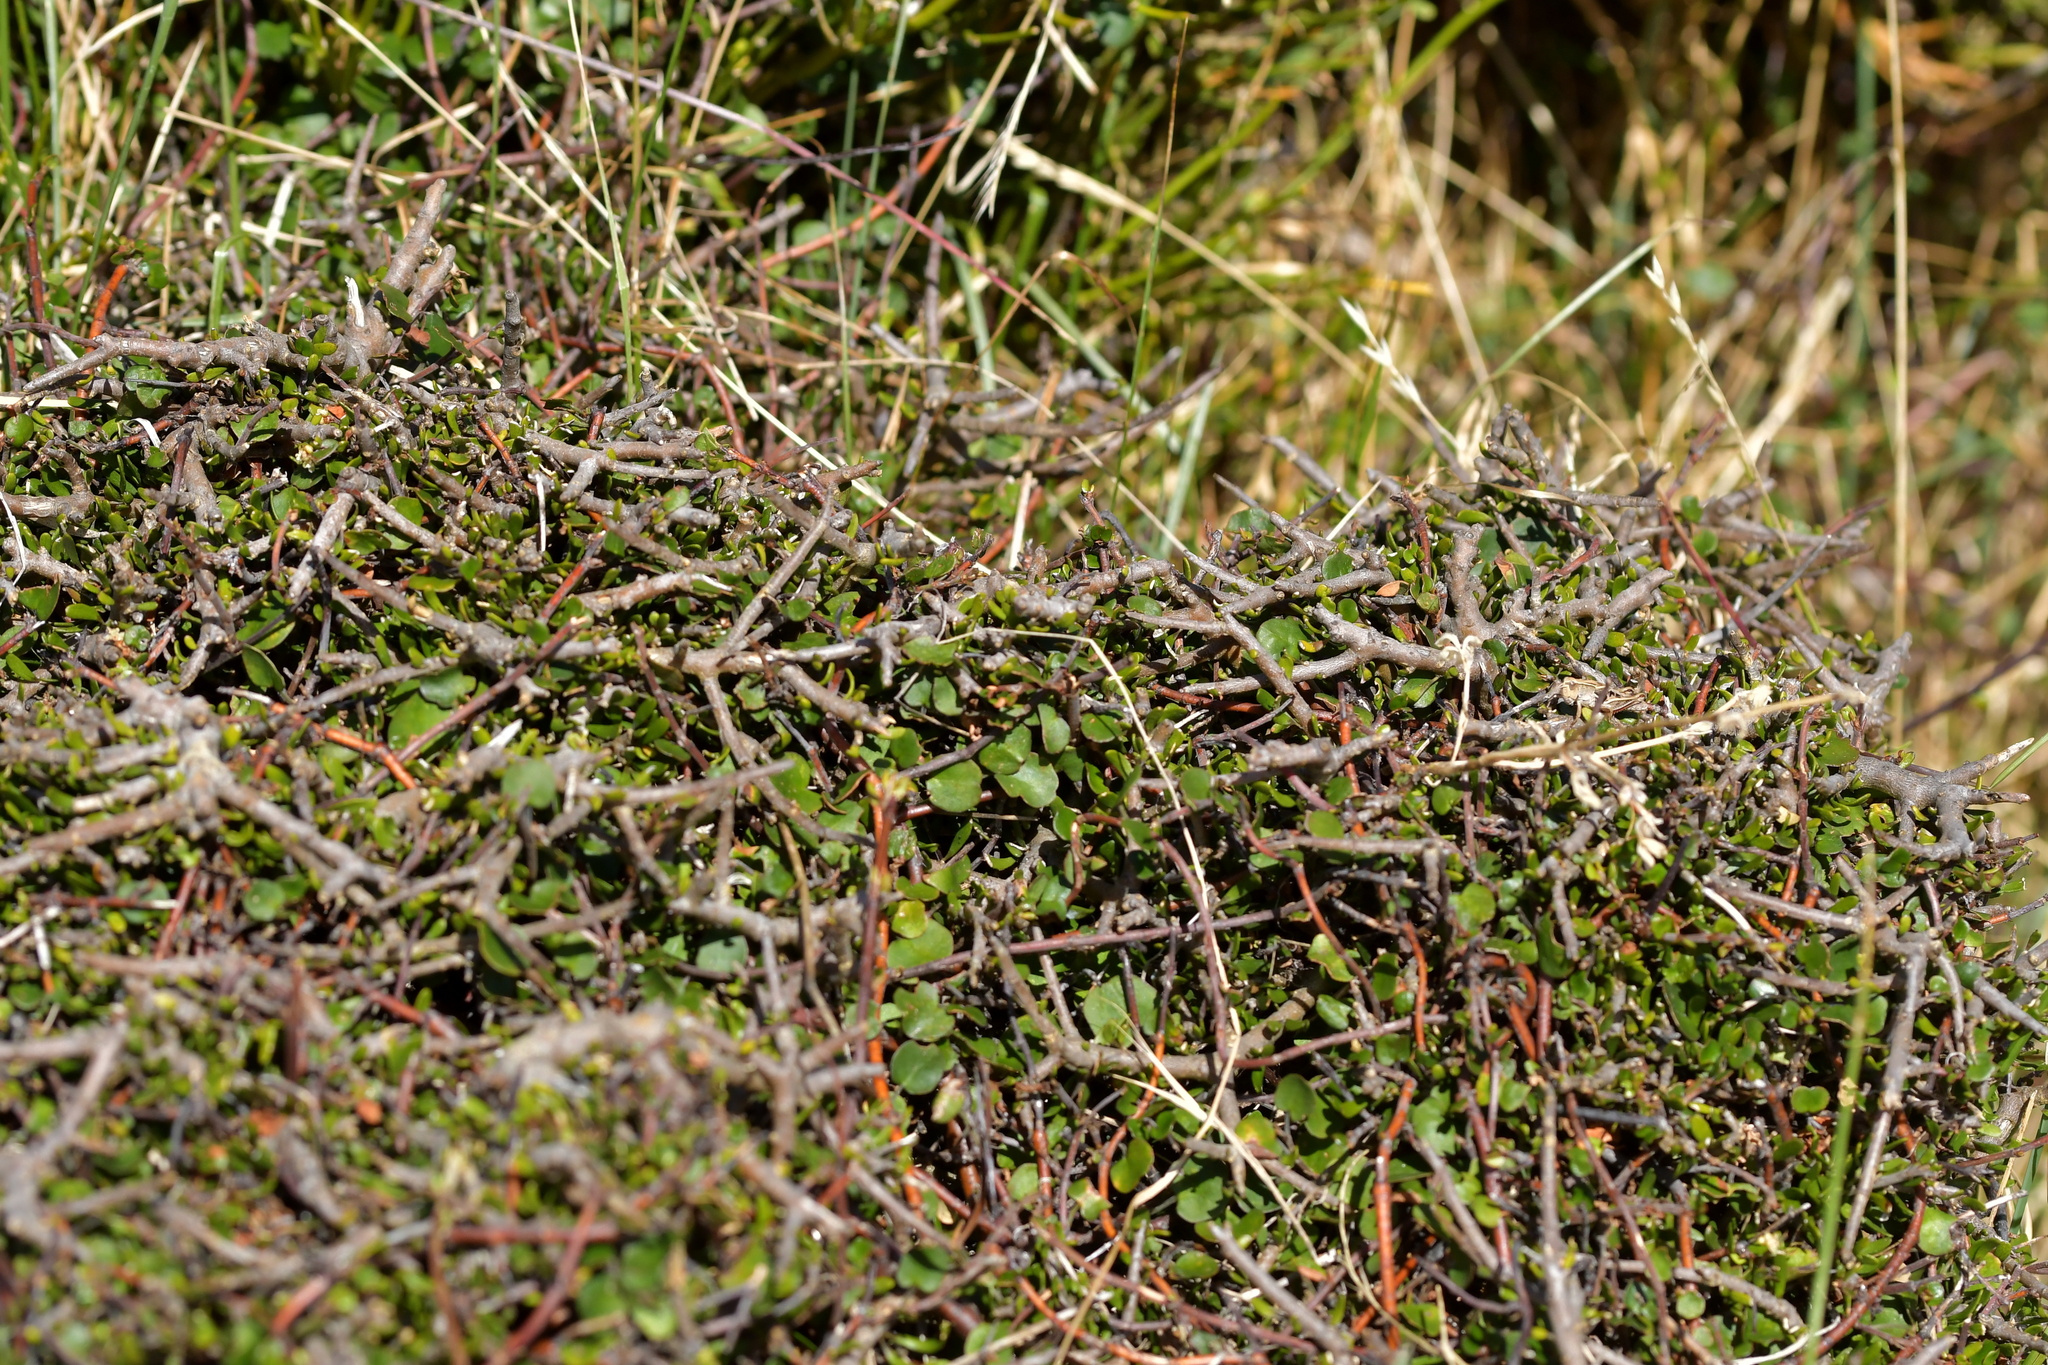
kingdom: Plantae
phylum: Tracheophyta
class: Magnoliopsida
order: Caryophyllales
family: Polygonaceae
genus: Muehlenbeckia
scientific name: Muehlenbeckia complexa
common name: Wireplant
